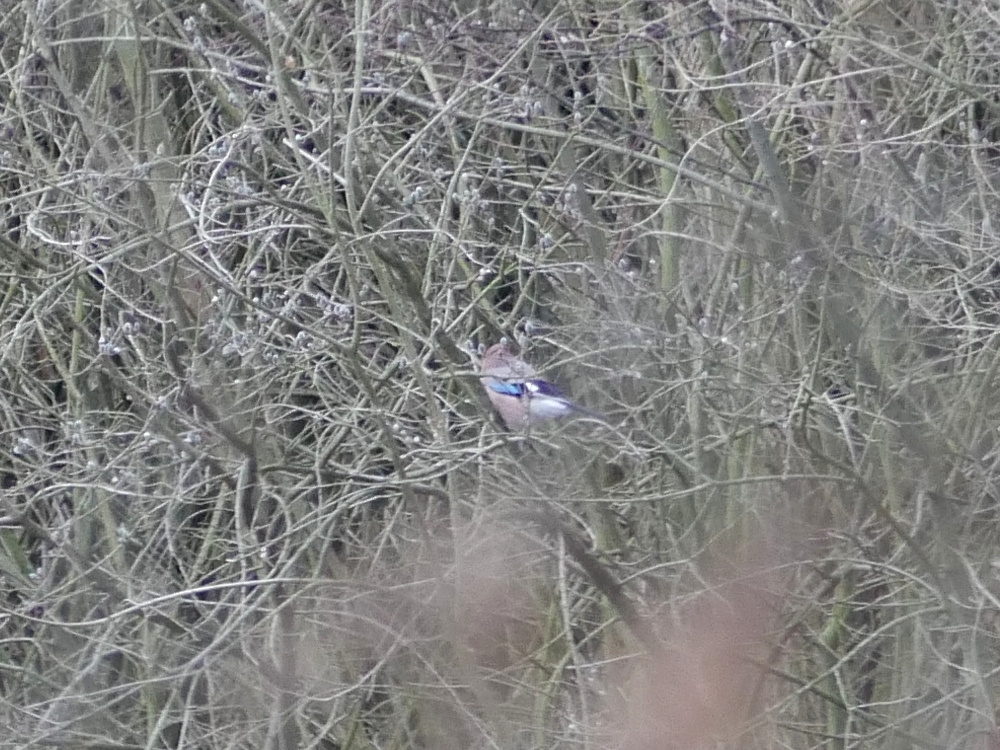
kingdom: Animalia
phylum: Chordata
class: Aves
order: Passeriformes
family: Corvidae
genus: Garrulus
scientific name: Garrulus glandarius
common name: Eurasian jay
